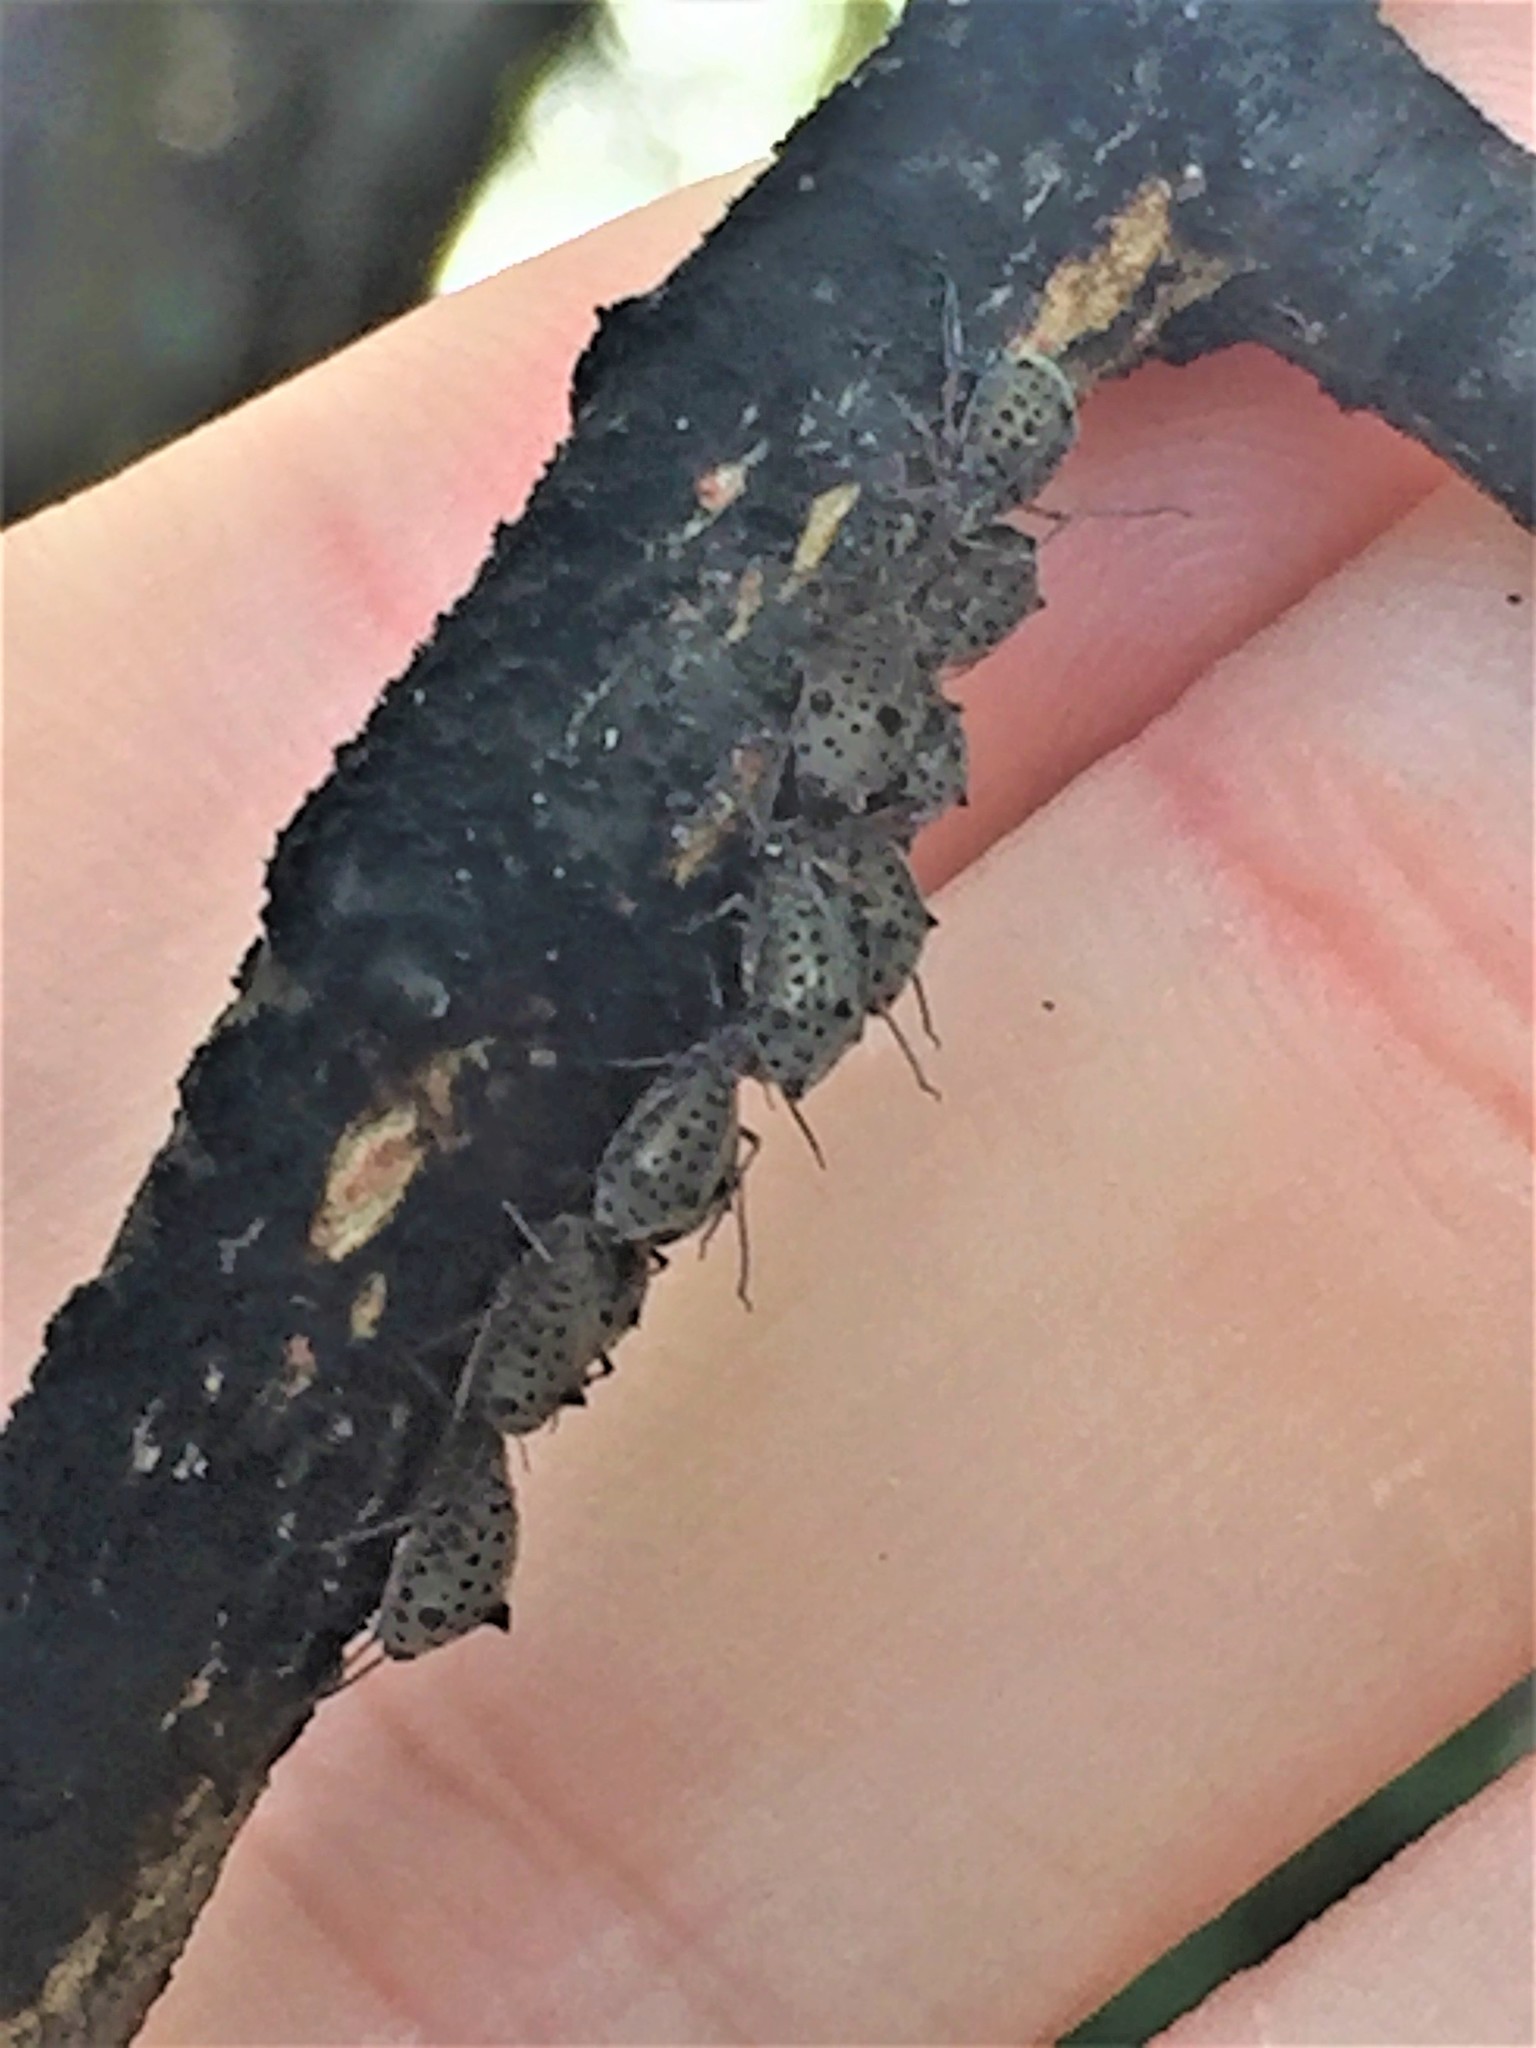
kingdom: Animalia
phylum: Arthropoda
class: Insecta
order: Hemiptera
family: Aphididae
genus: Tuberolachnus
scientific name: Tuberolachnus salignus
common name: Giant willow aphid
